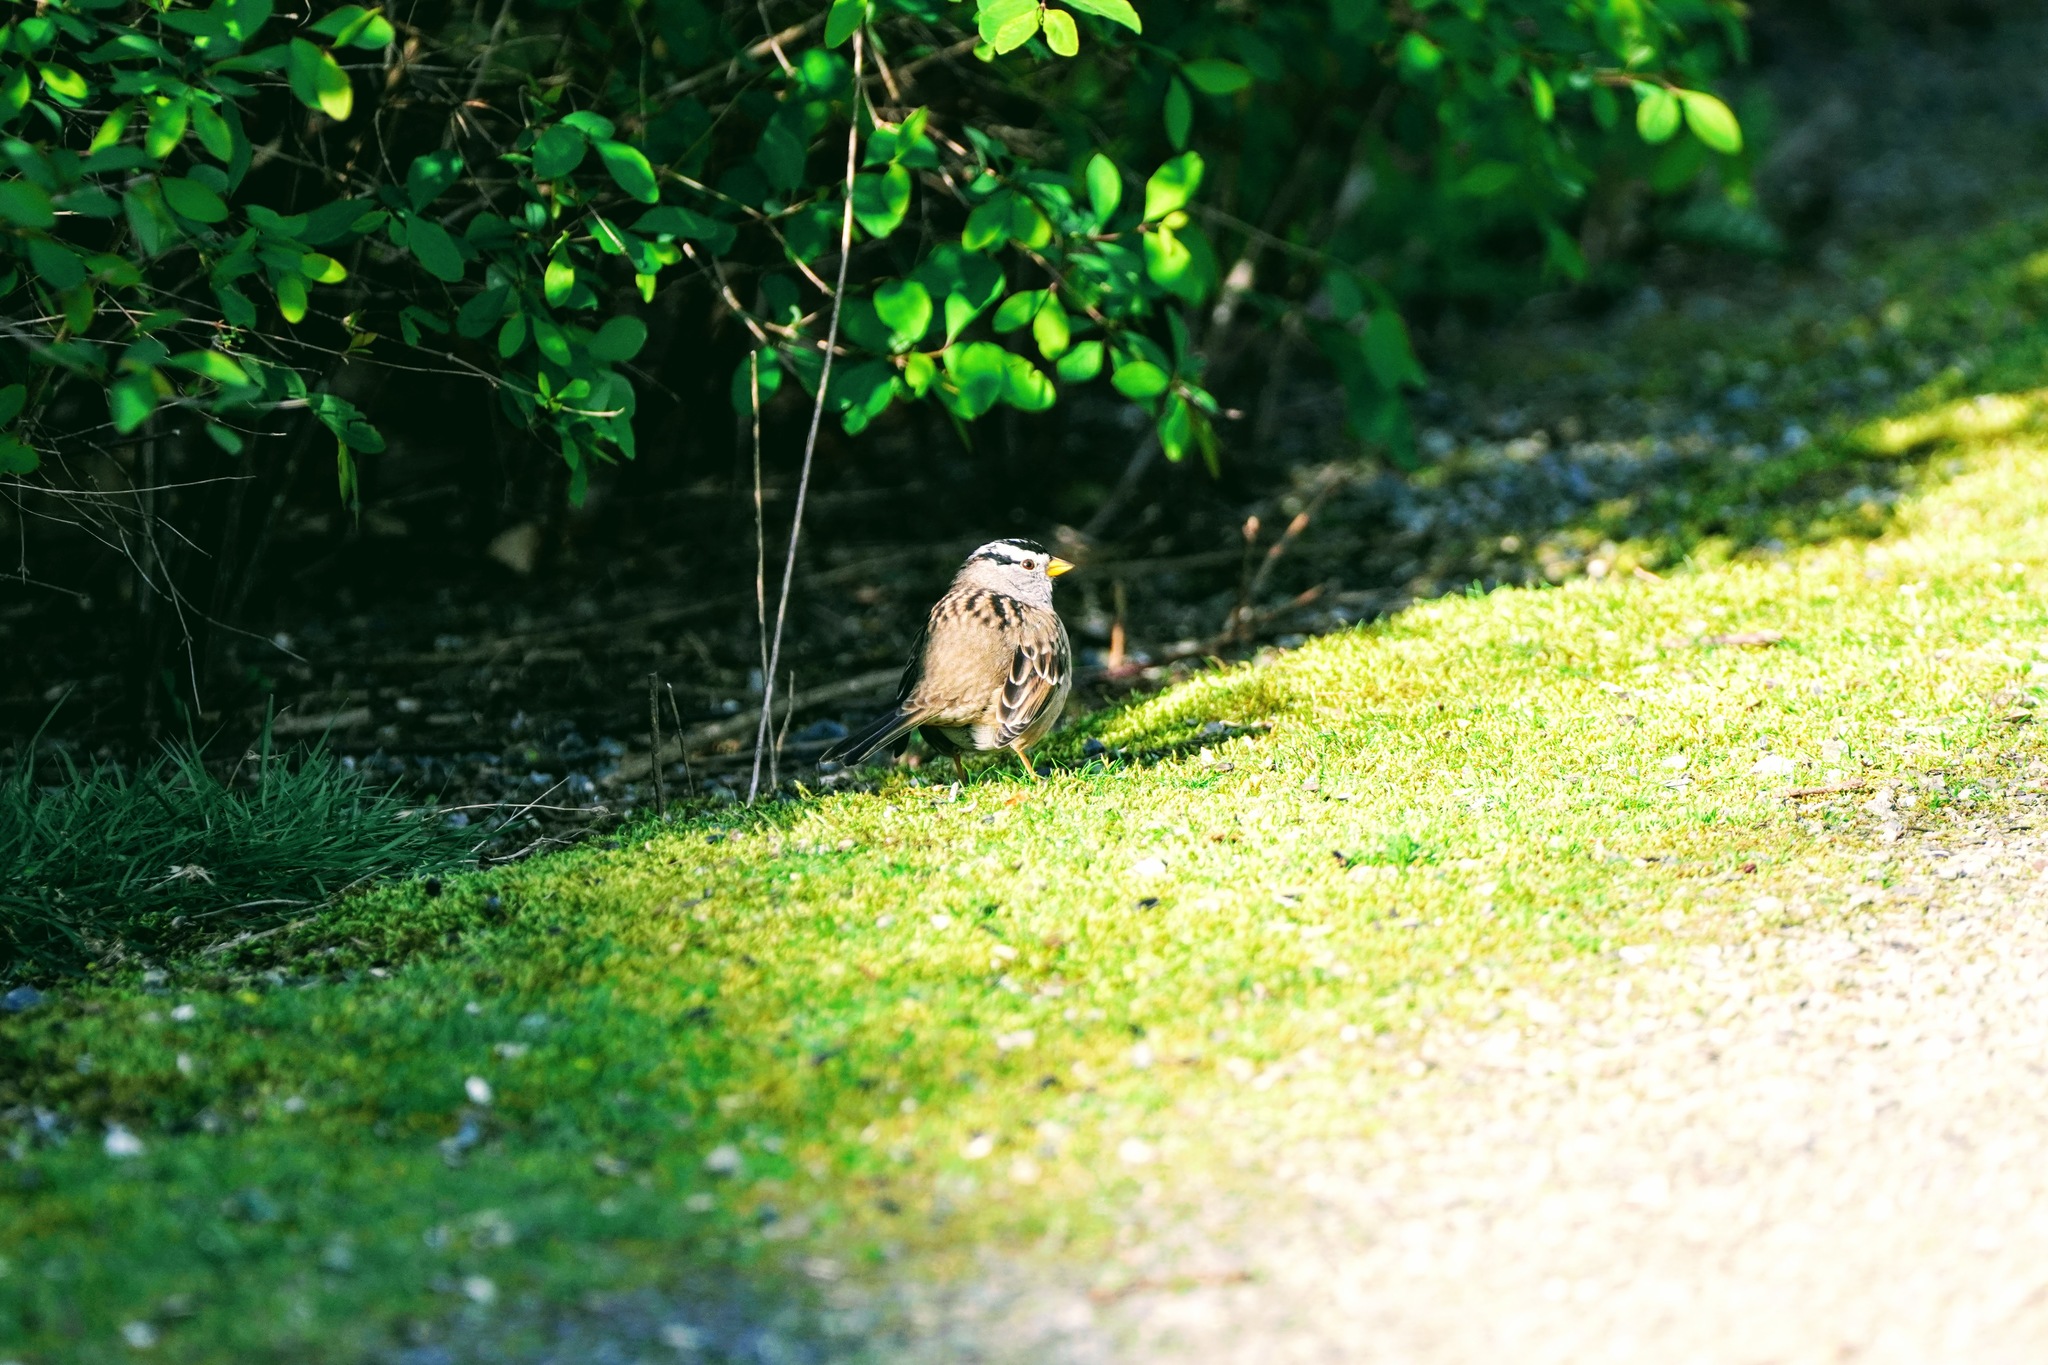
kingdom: Animalia
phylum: Chordata
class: Aves
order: Passeriformes
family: Passerellidae
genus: Zonotrichia
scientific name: Zonotrichia leucophrys
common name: White-crowned sparrow
